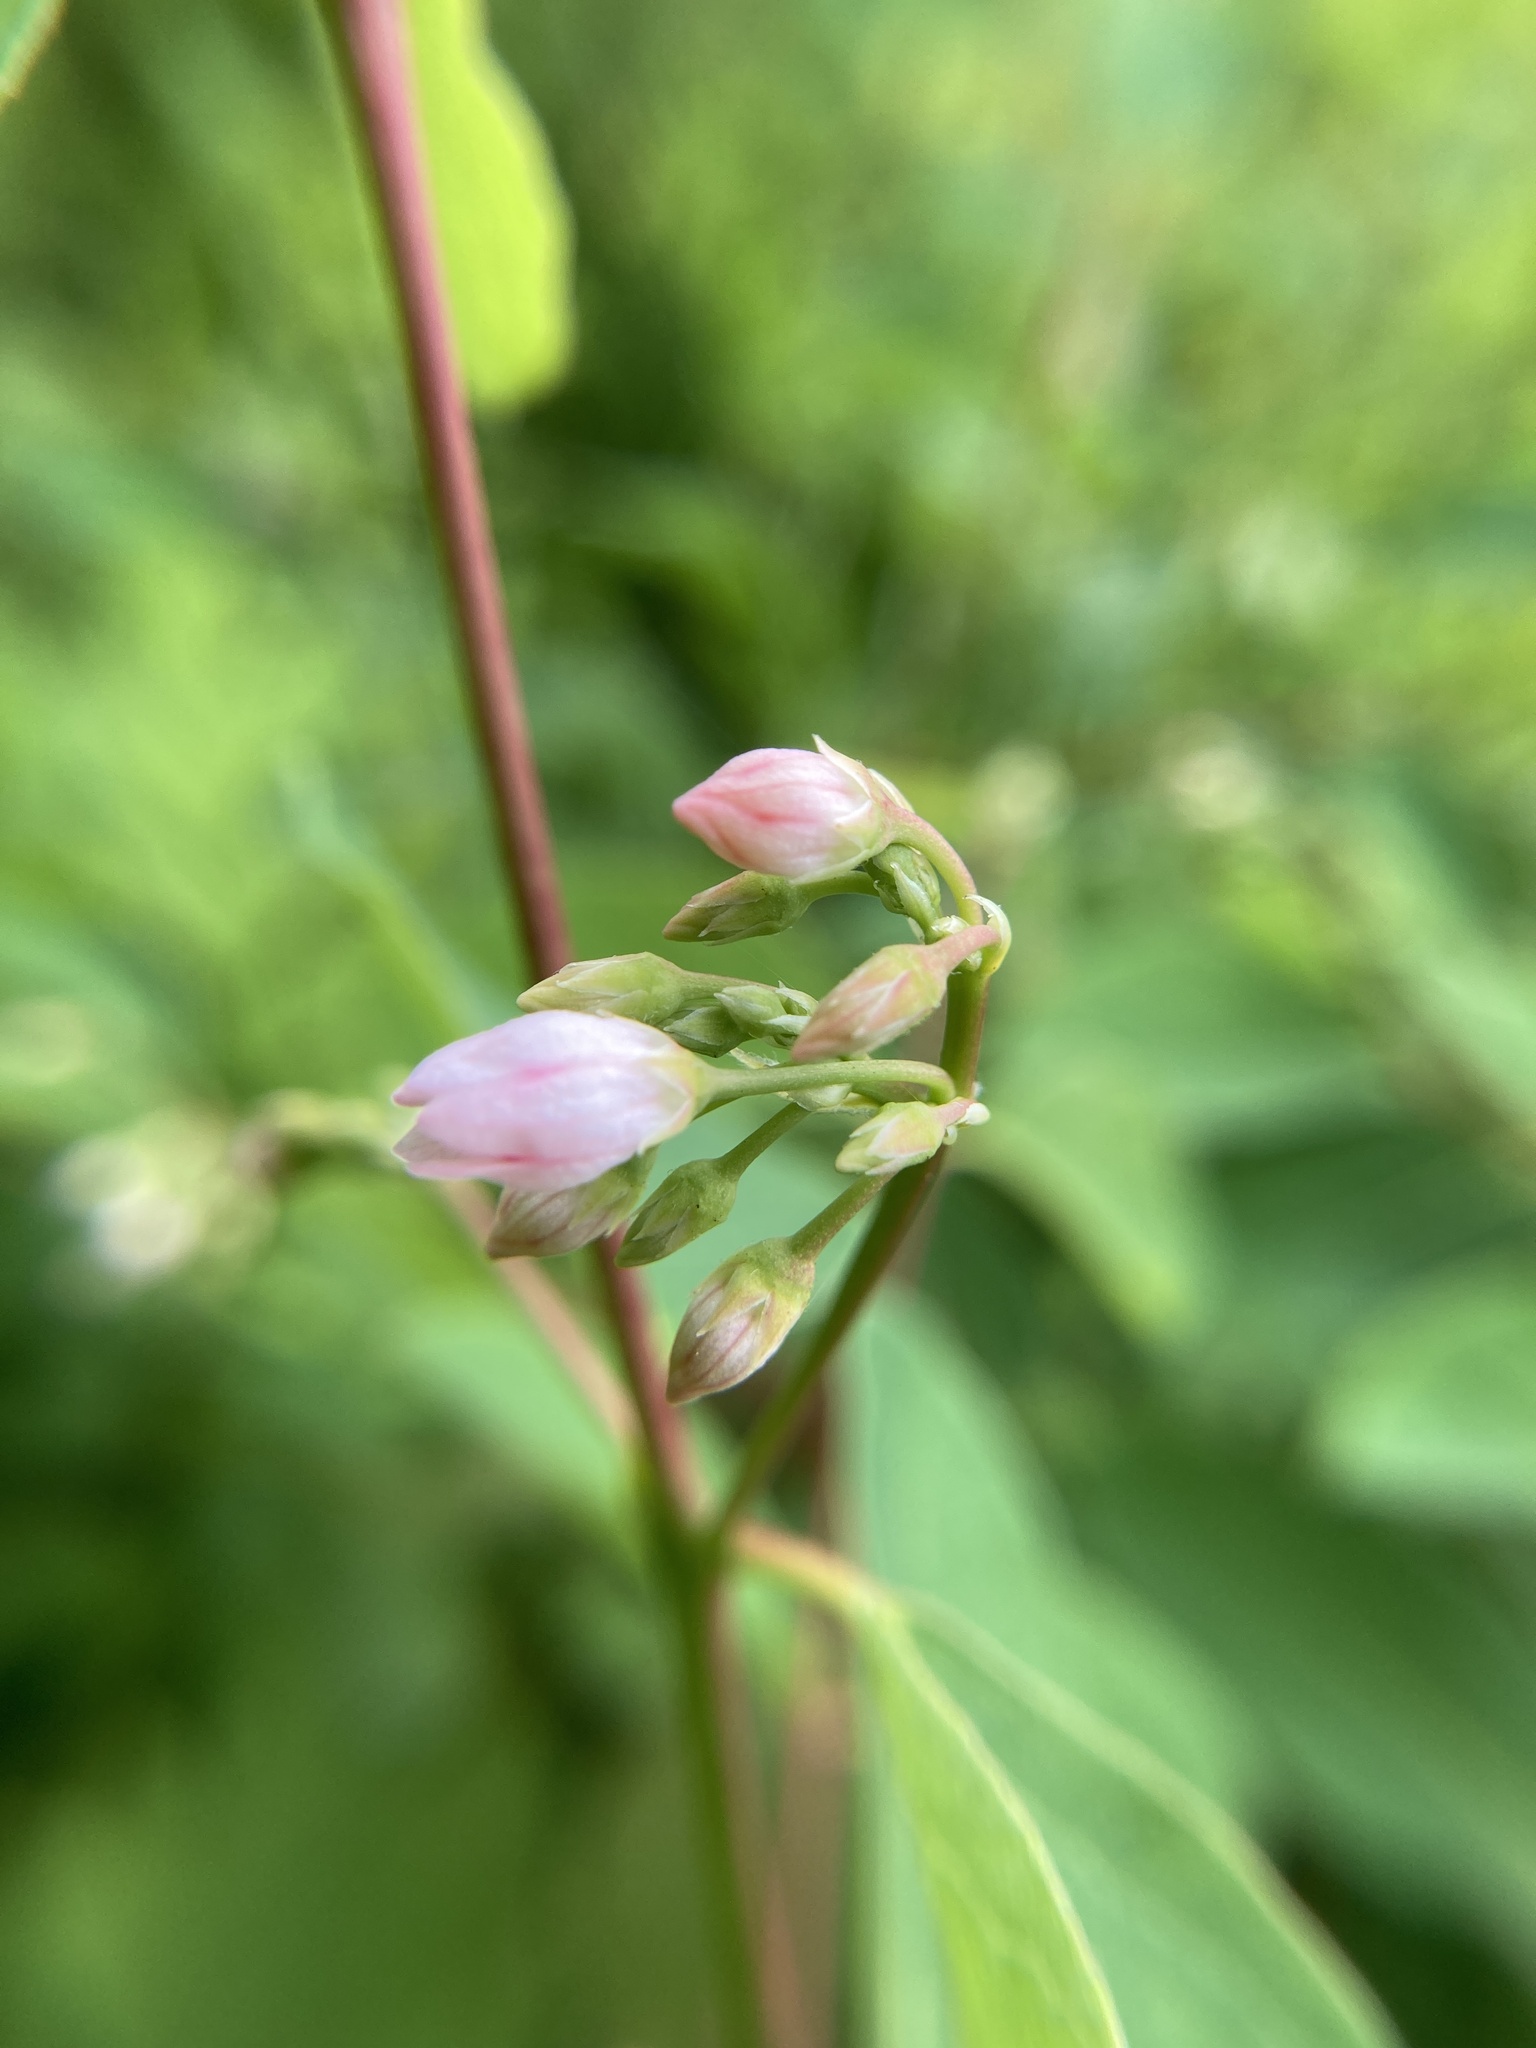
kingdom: Plantae
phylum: Tracheophyta
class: Magnoliopsida
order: Gentianales
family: Apocynaceae
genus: Apocynum
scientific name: Apocynum androsaemifolium
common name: Spreading dogbane
